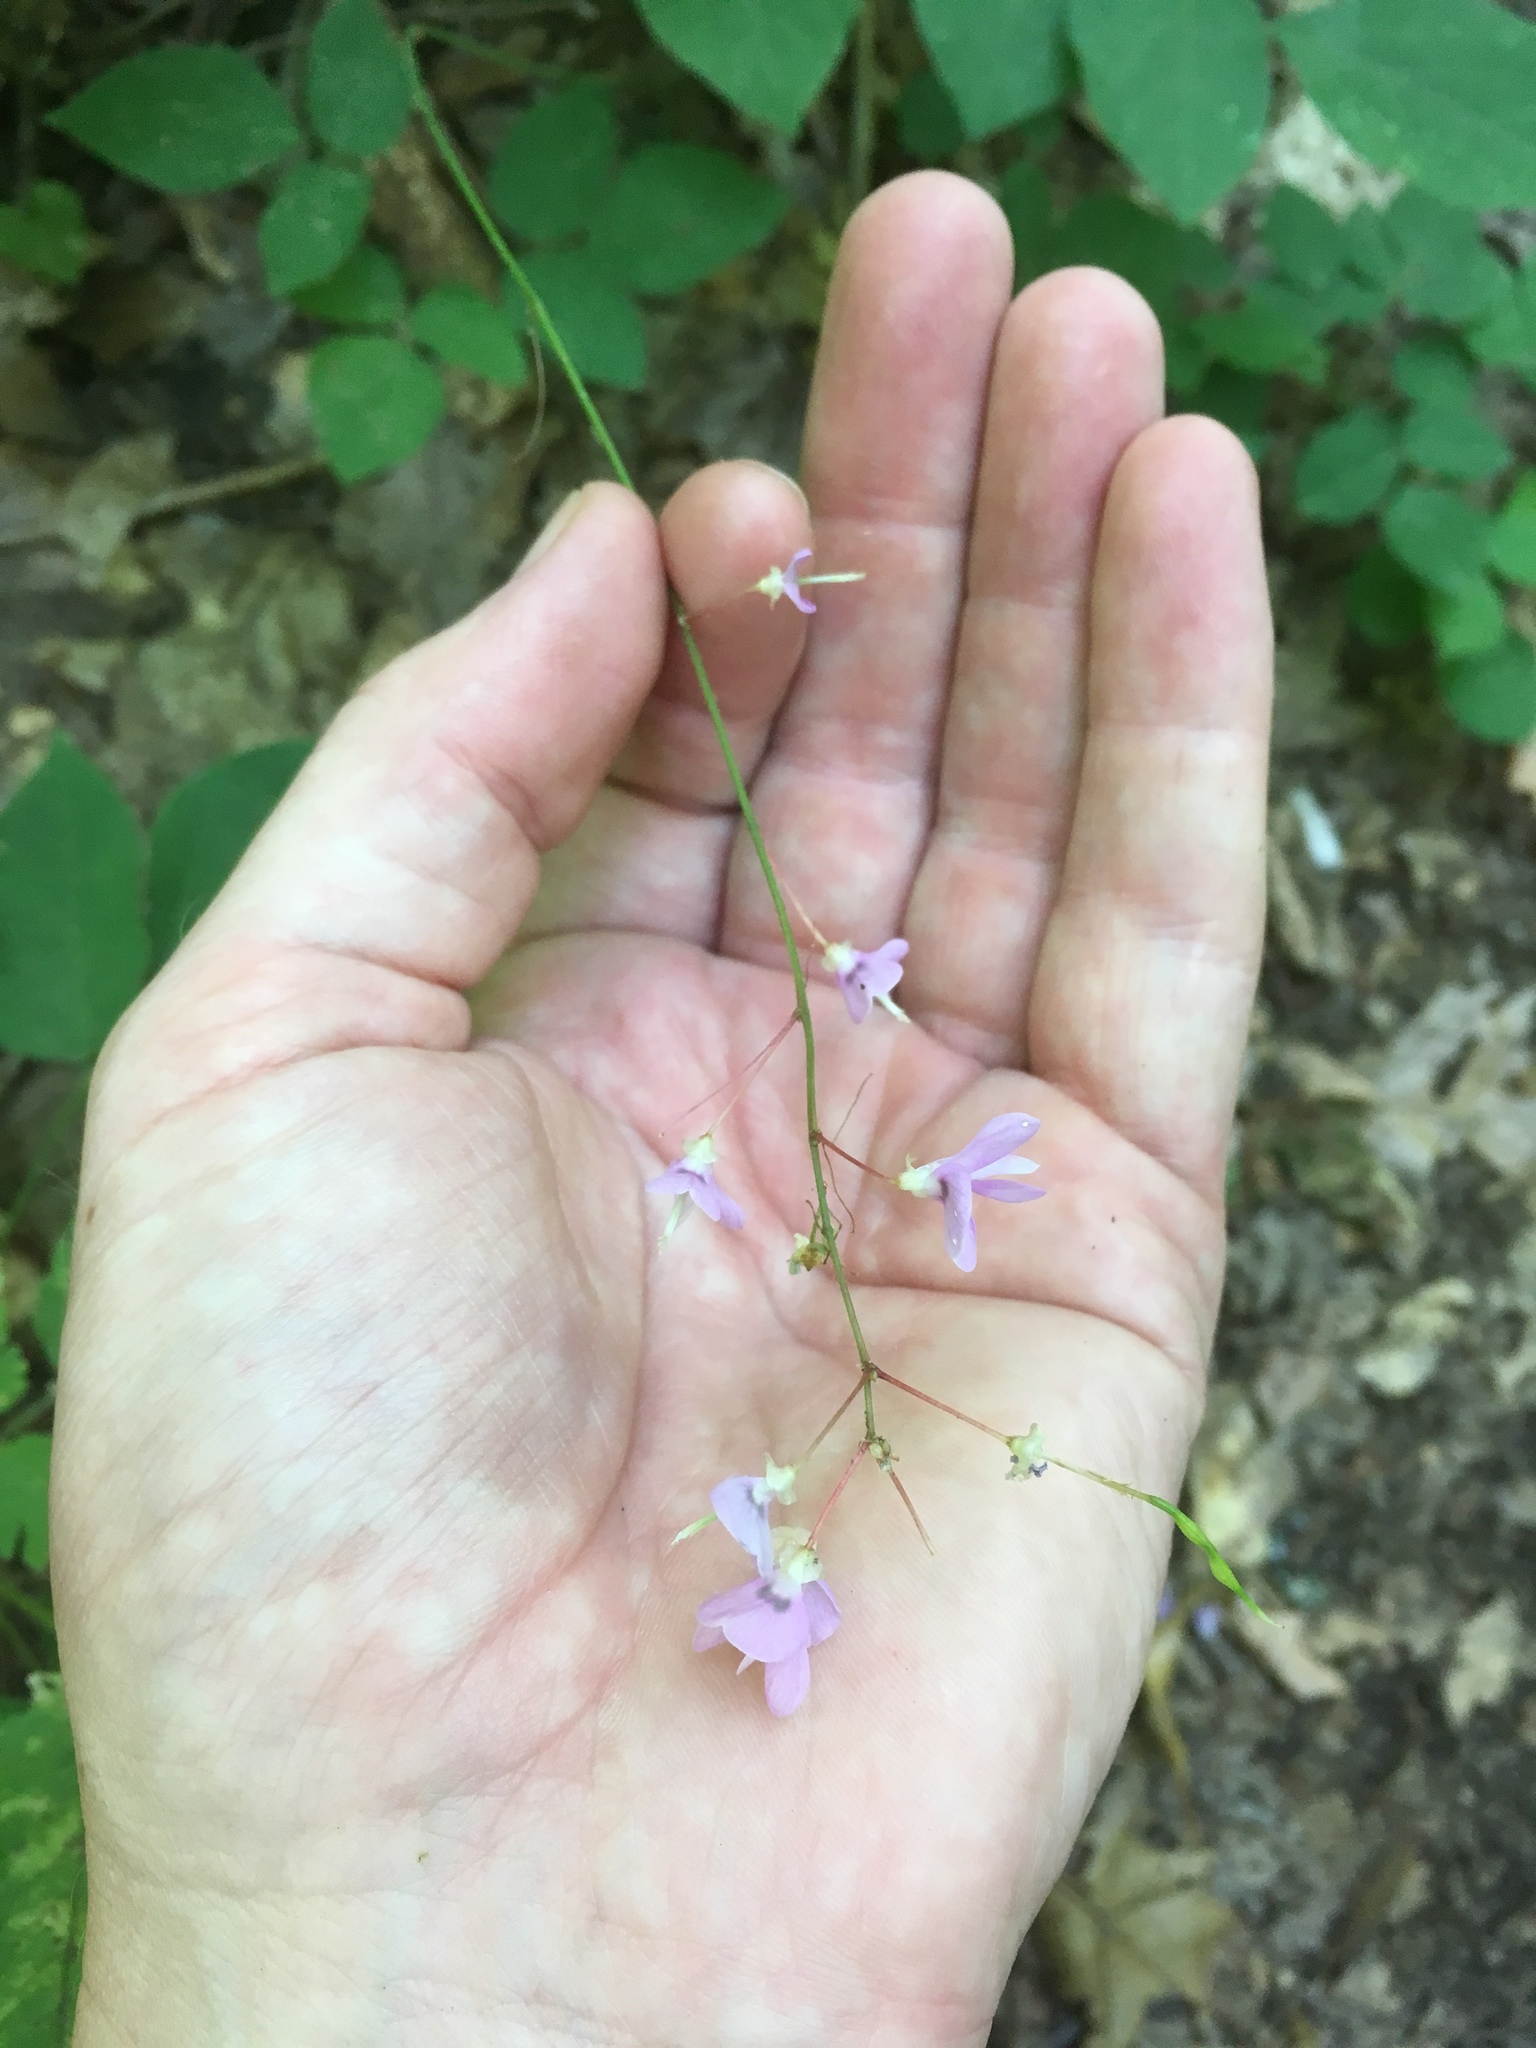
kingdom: Plantae
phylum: Tracheophyta
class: Magnoliopsida
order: Fabales
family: Fabaceae
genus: Hylodesmum
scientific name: Hylodesmum nudiflorum
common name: Bare-stemmed tick-trefoil
